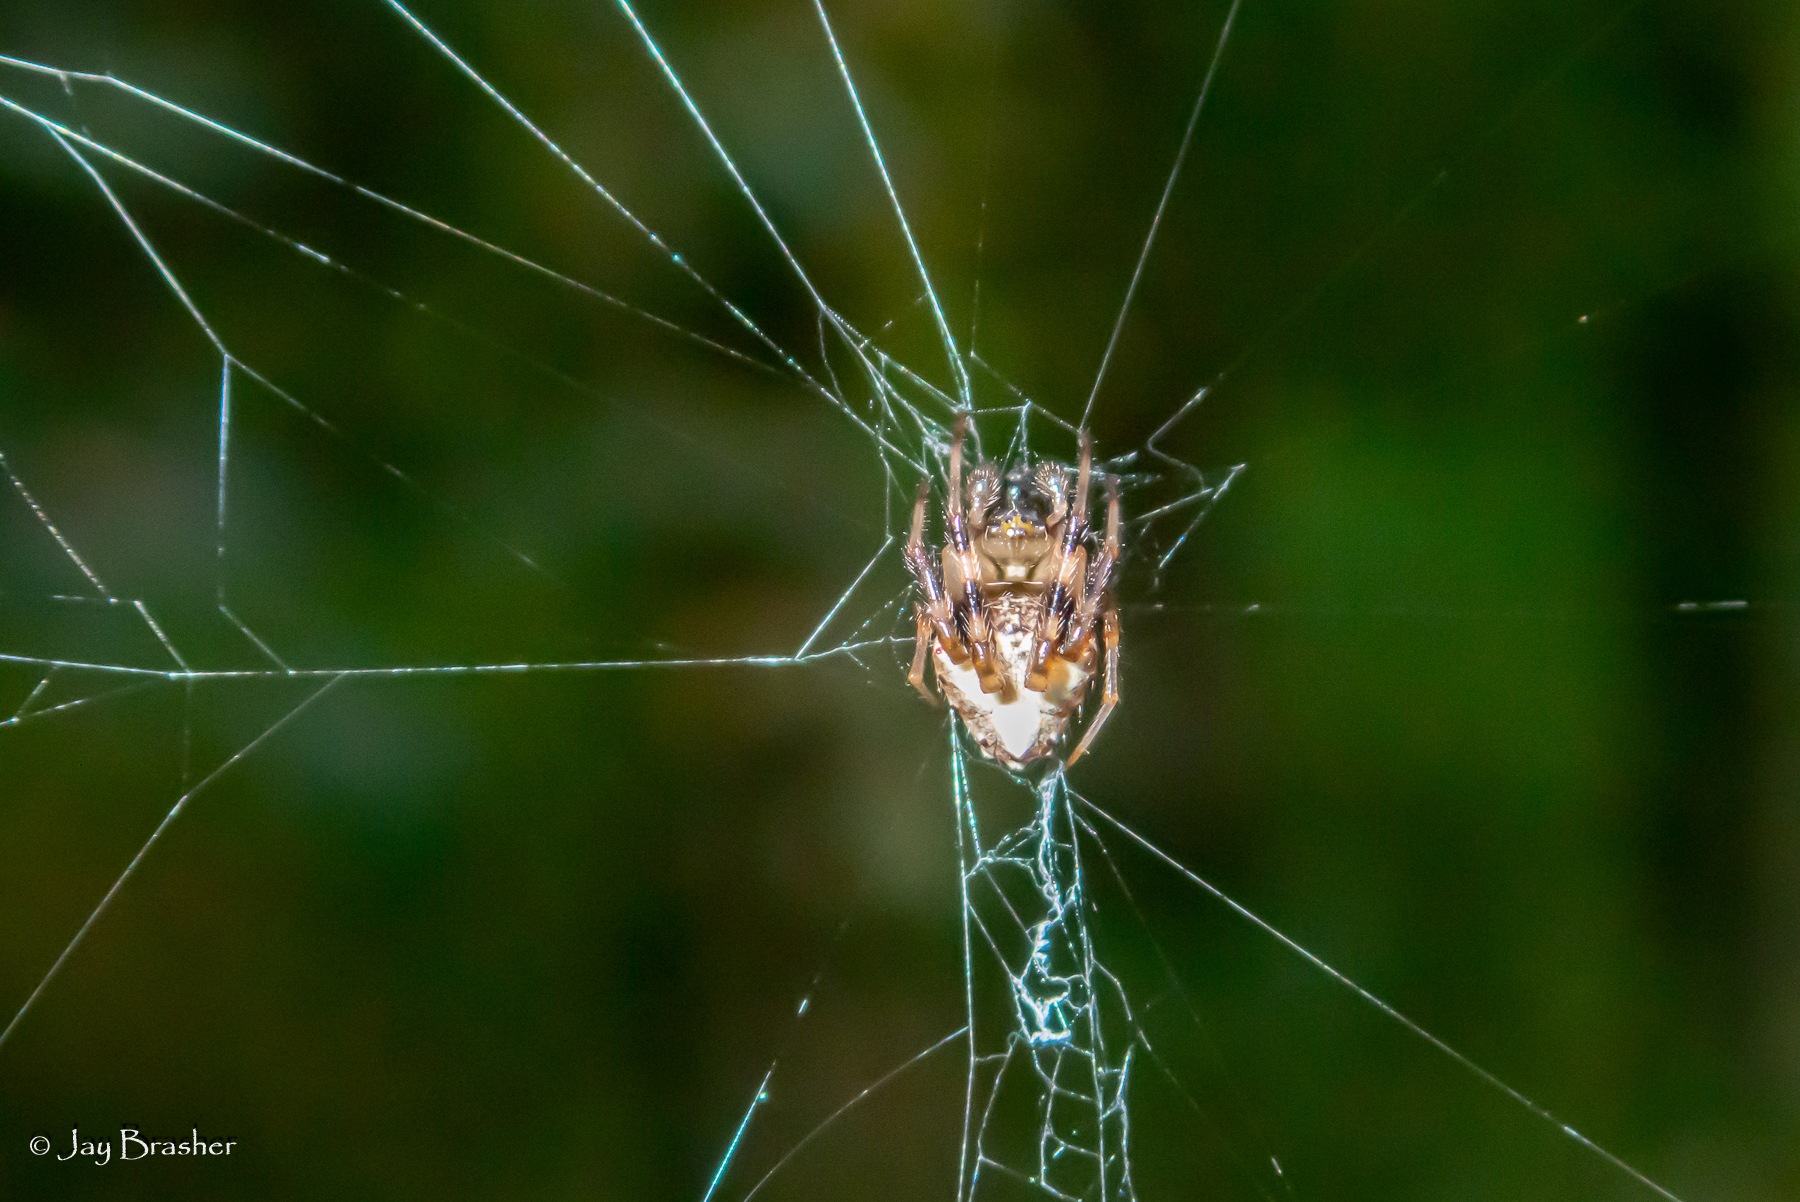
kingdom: Animalia
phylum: Arthropoda
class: Arachnida
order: Araneae
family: Araneidae
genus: Verrucosa
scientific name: Verrucosa arenata
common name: Orb weavers
